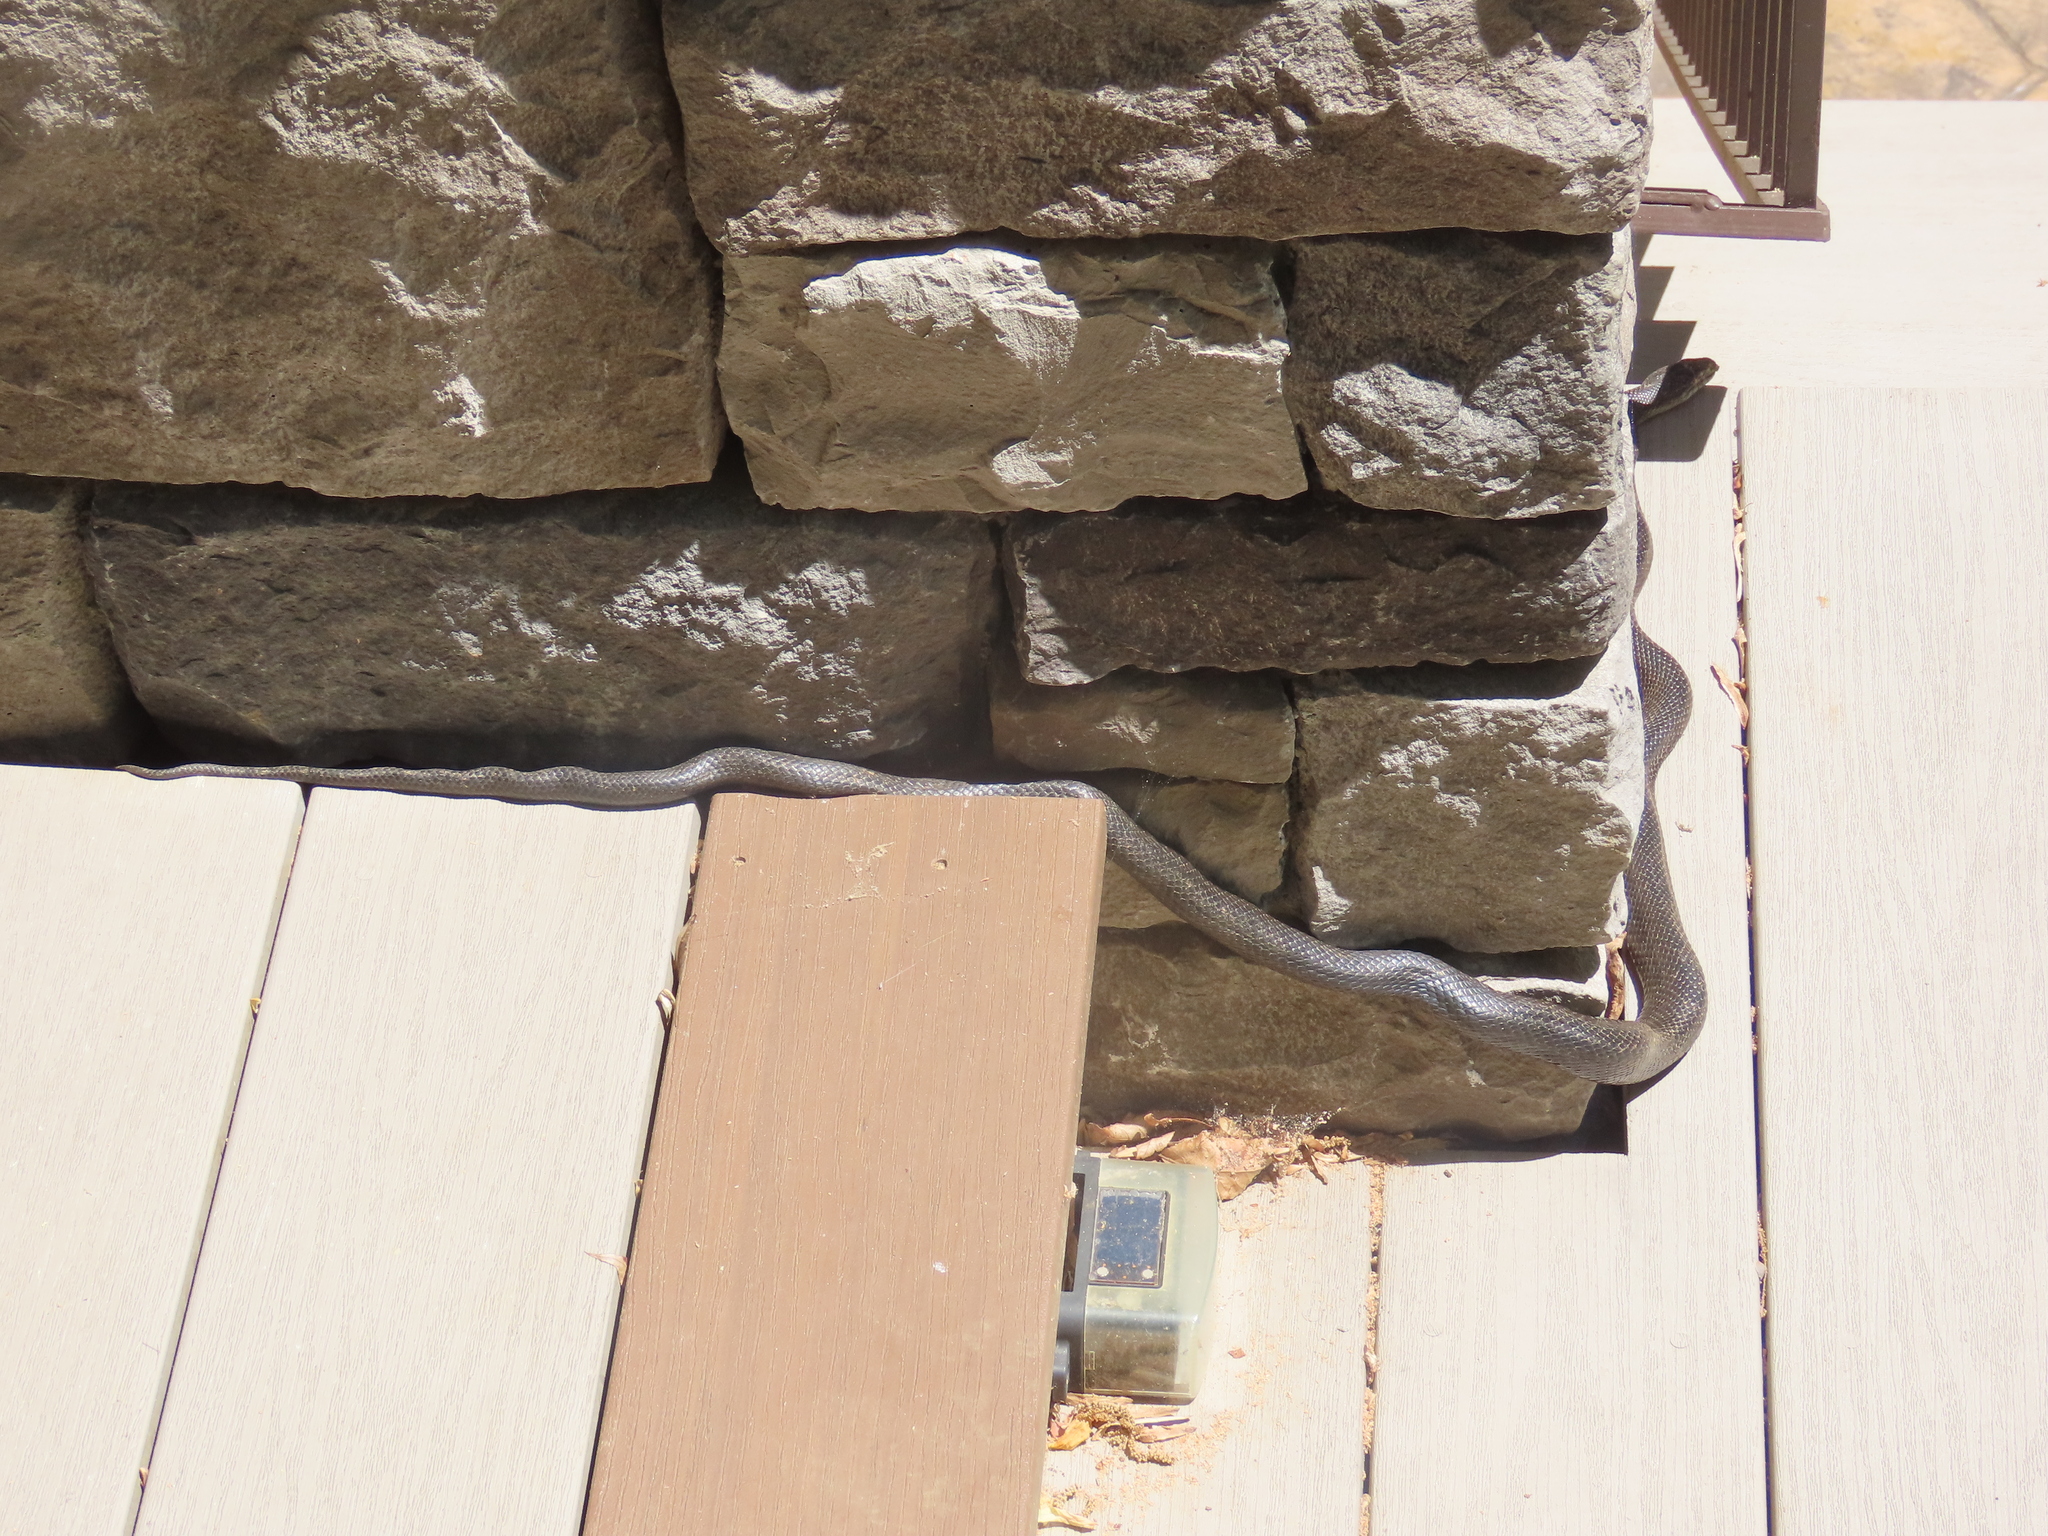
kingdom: Animalia
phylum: Chordata
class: Squamata
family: Colubridae
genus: Pantherophis
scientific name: Pantherophis
